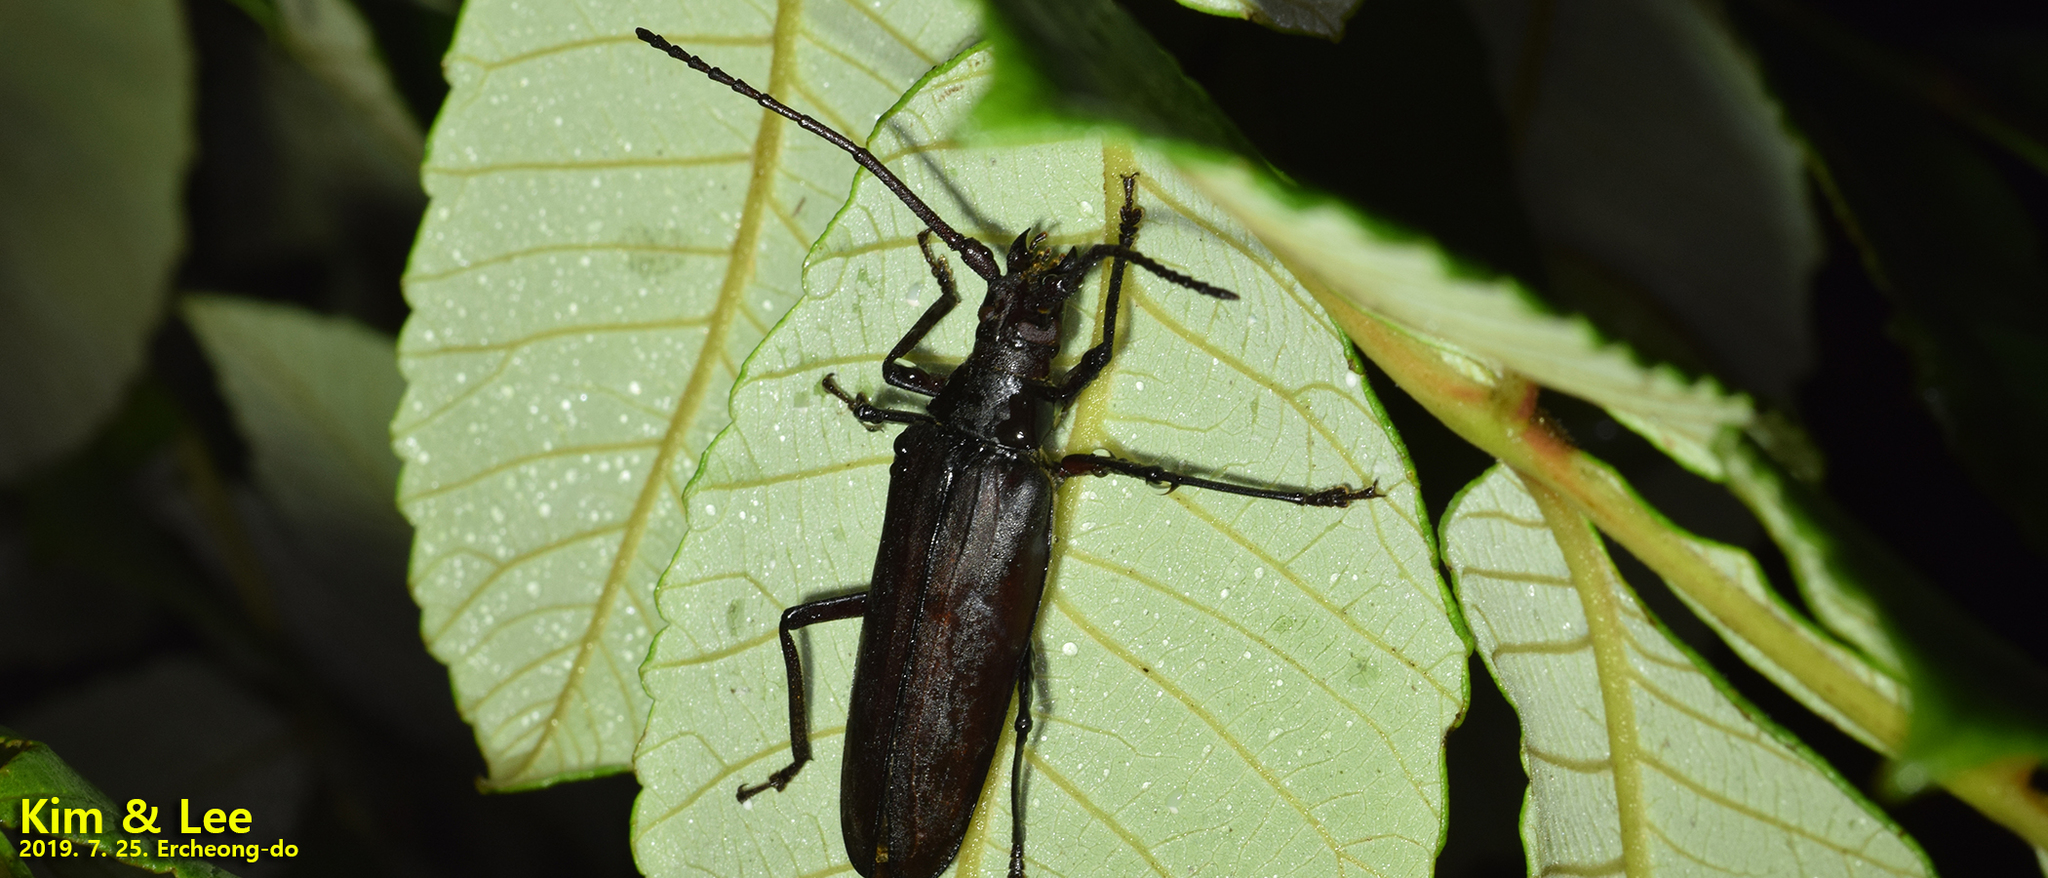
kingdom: Animalia
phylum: Arthropoda
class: Insecta
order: Coleoptera
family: Cerambycidae
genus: Aegosoma
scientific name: Aegosoma sinicum
